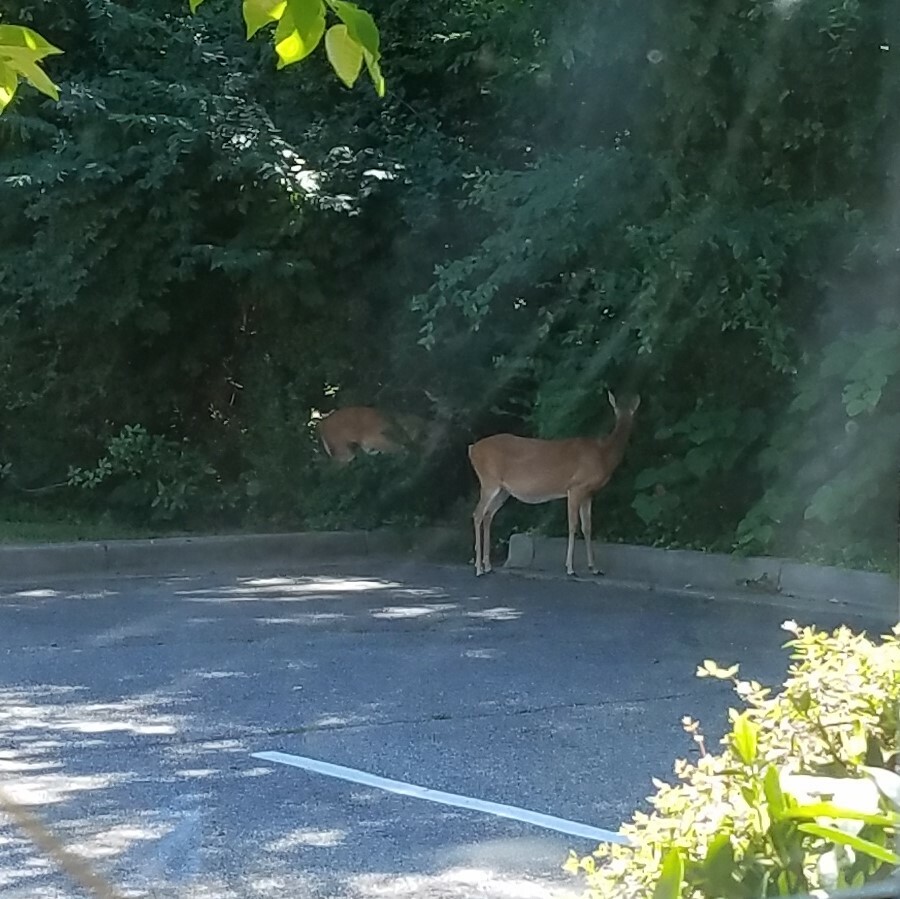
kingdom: Animalia
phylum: Chordata
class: Mammalia
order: Artiodactyla
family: Cervidae
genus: Odocoileus
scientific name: Odocoileus virginianus
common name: White-tailed deer
